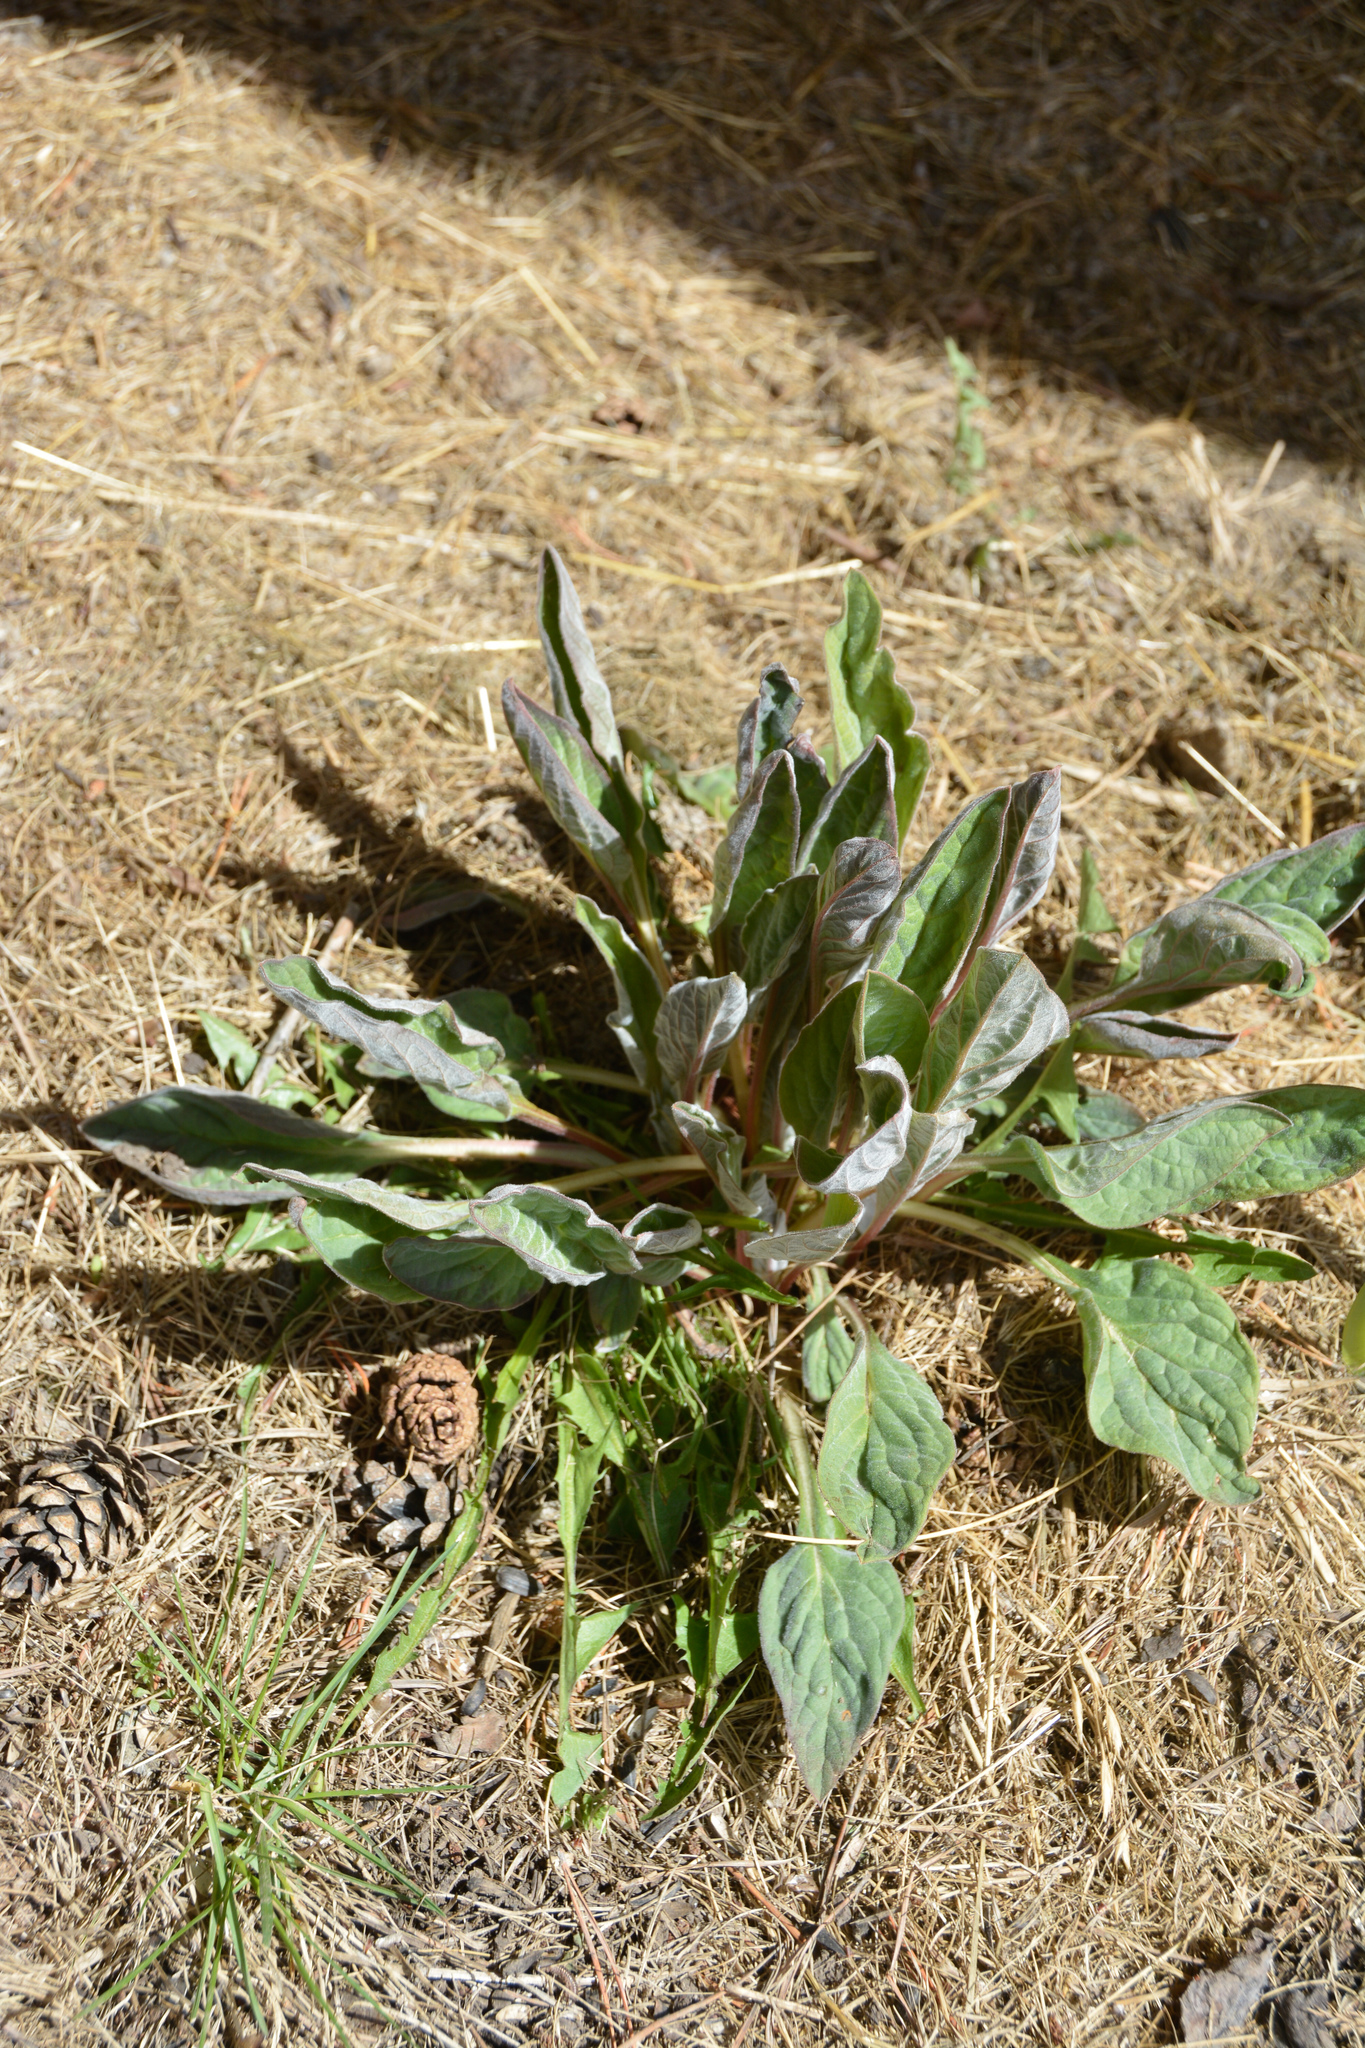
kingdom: Plantae
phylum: Tracheophyta
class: Magnoliopsida
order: Boraginales
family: Boraginaceae
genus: Cynoglossum
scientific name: Cynoglossum officinale
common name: Hound's-tongue
